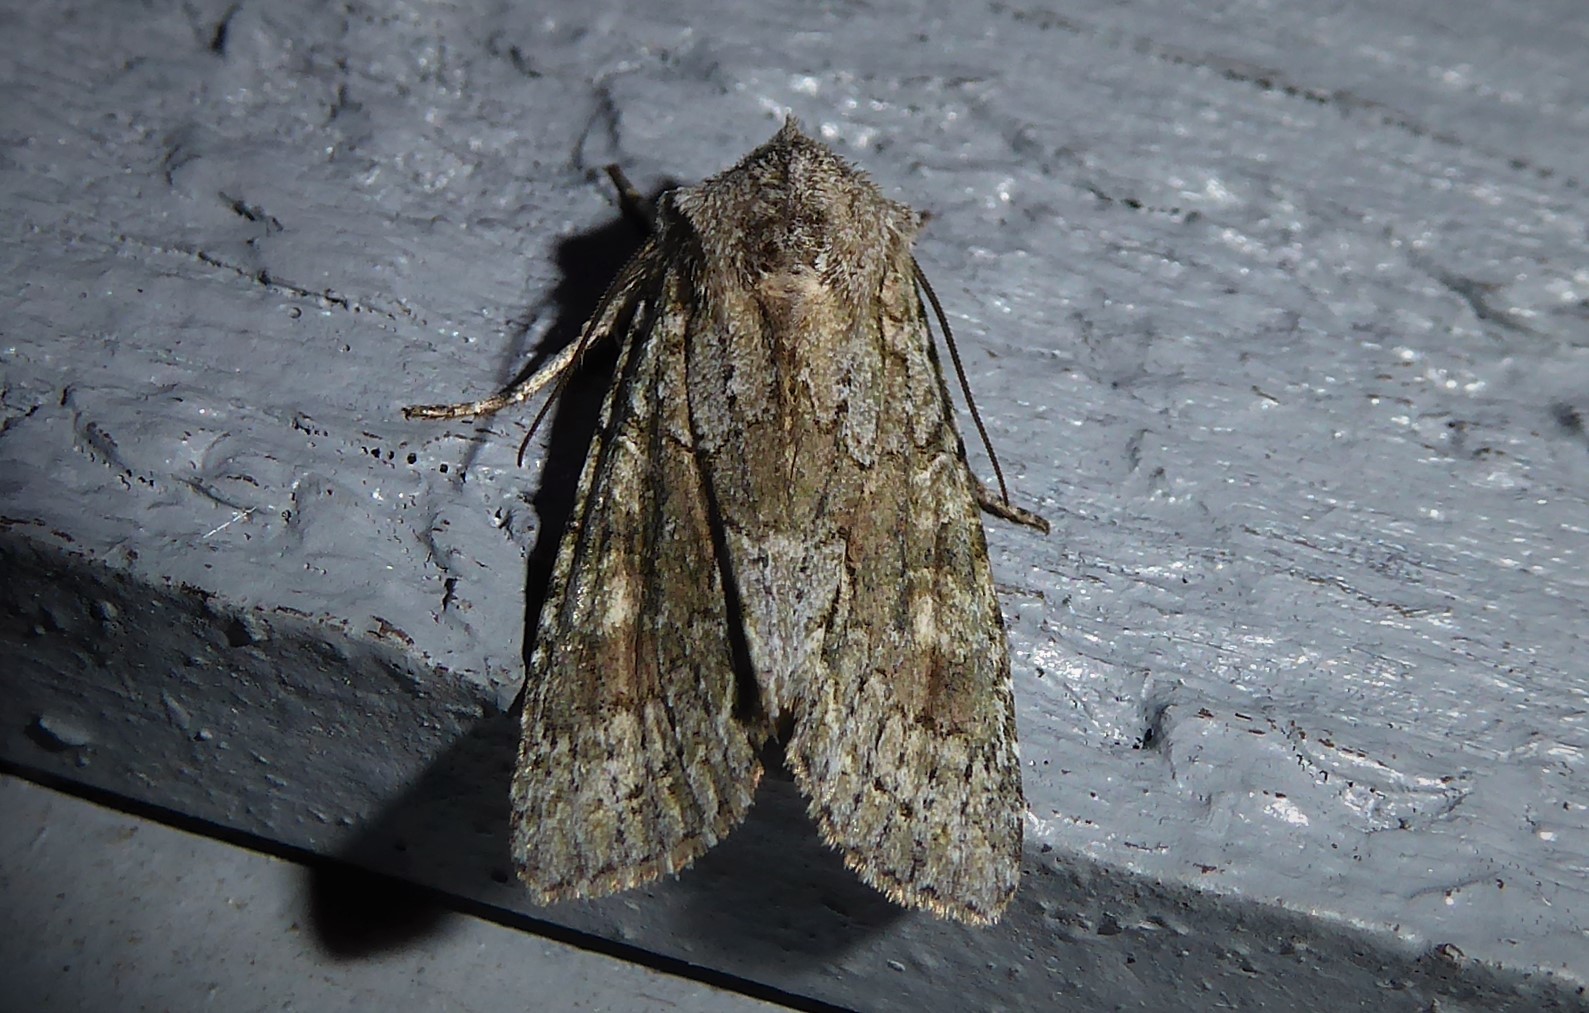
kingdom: Animalia
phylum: Arthropoda
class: Insecta
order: Lepidoptera
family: Noctuidae
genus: Ichneutica
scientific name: Ichneutica mutans
